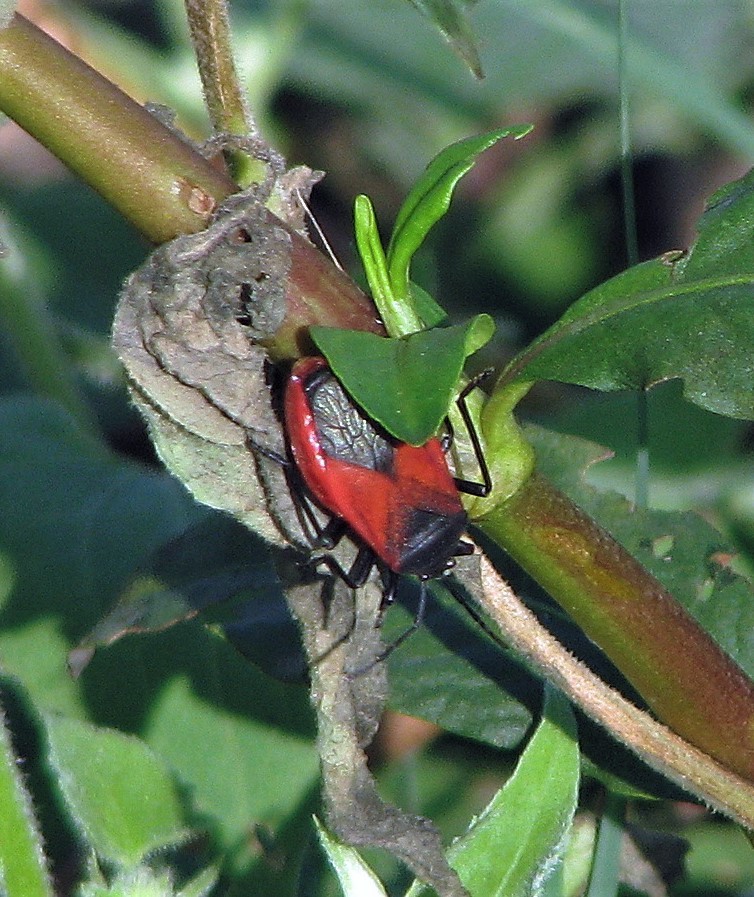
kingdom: Animalia
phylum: Arthropoda
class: Insecta
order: Hemiptera
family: Largidae
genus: Largus
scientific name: Largus rufipennis
